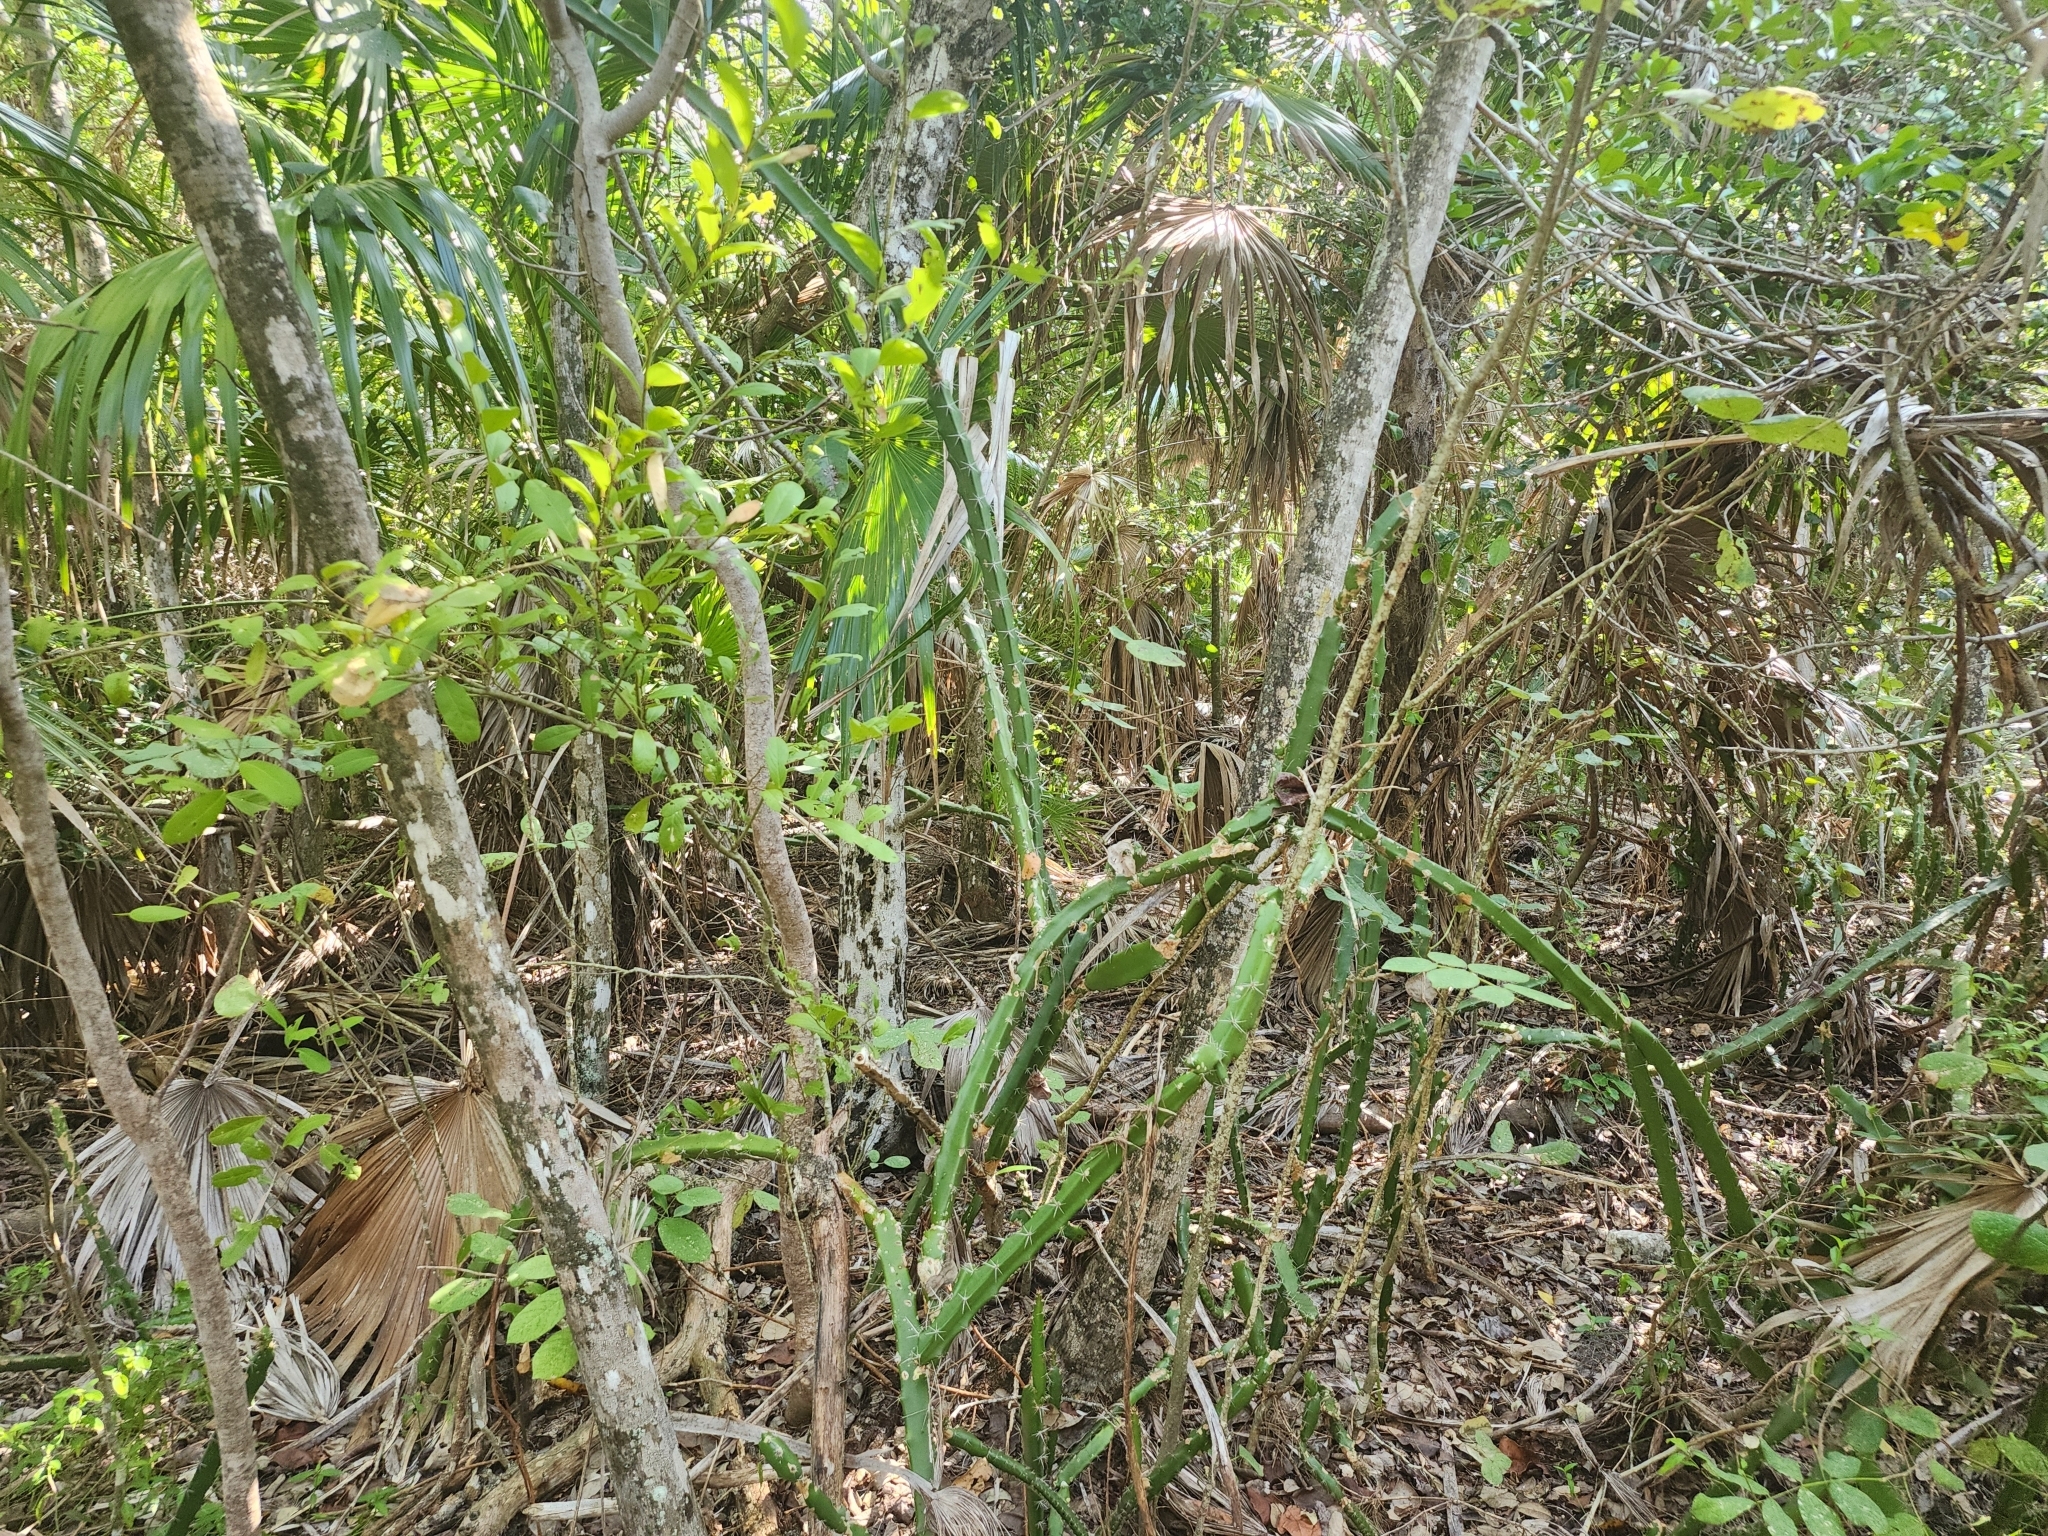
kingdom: Plantae
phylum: Tracheophyta
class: Magnoliopsida
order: Caryophyllales
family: Cactaceae
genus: Acanthocereus
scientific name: Acanthocereus tetragonus
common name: Triangle cactus
